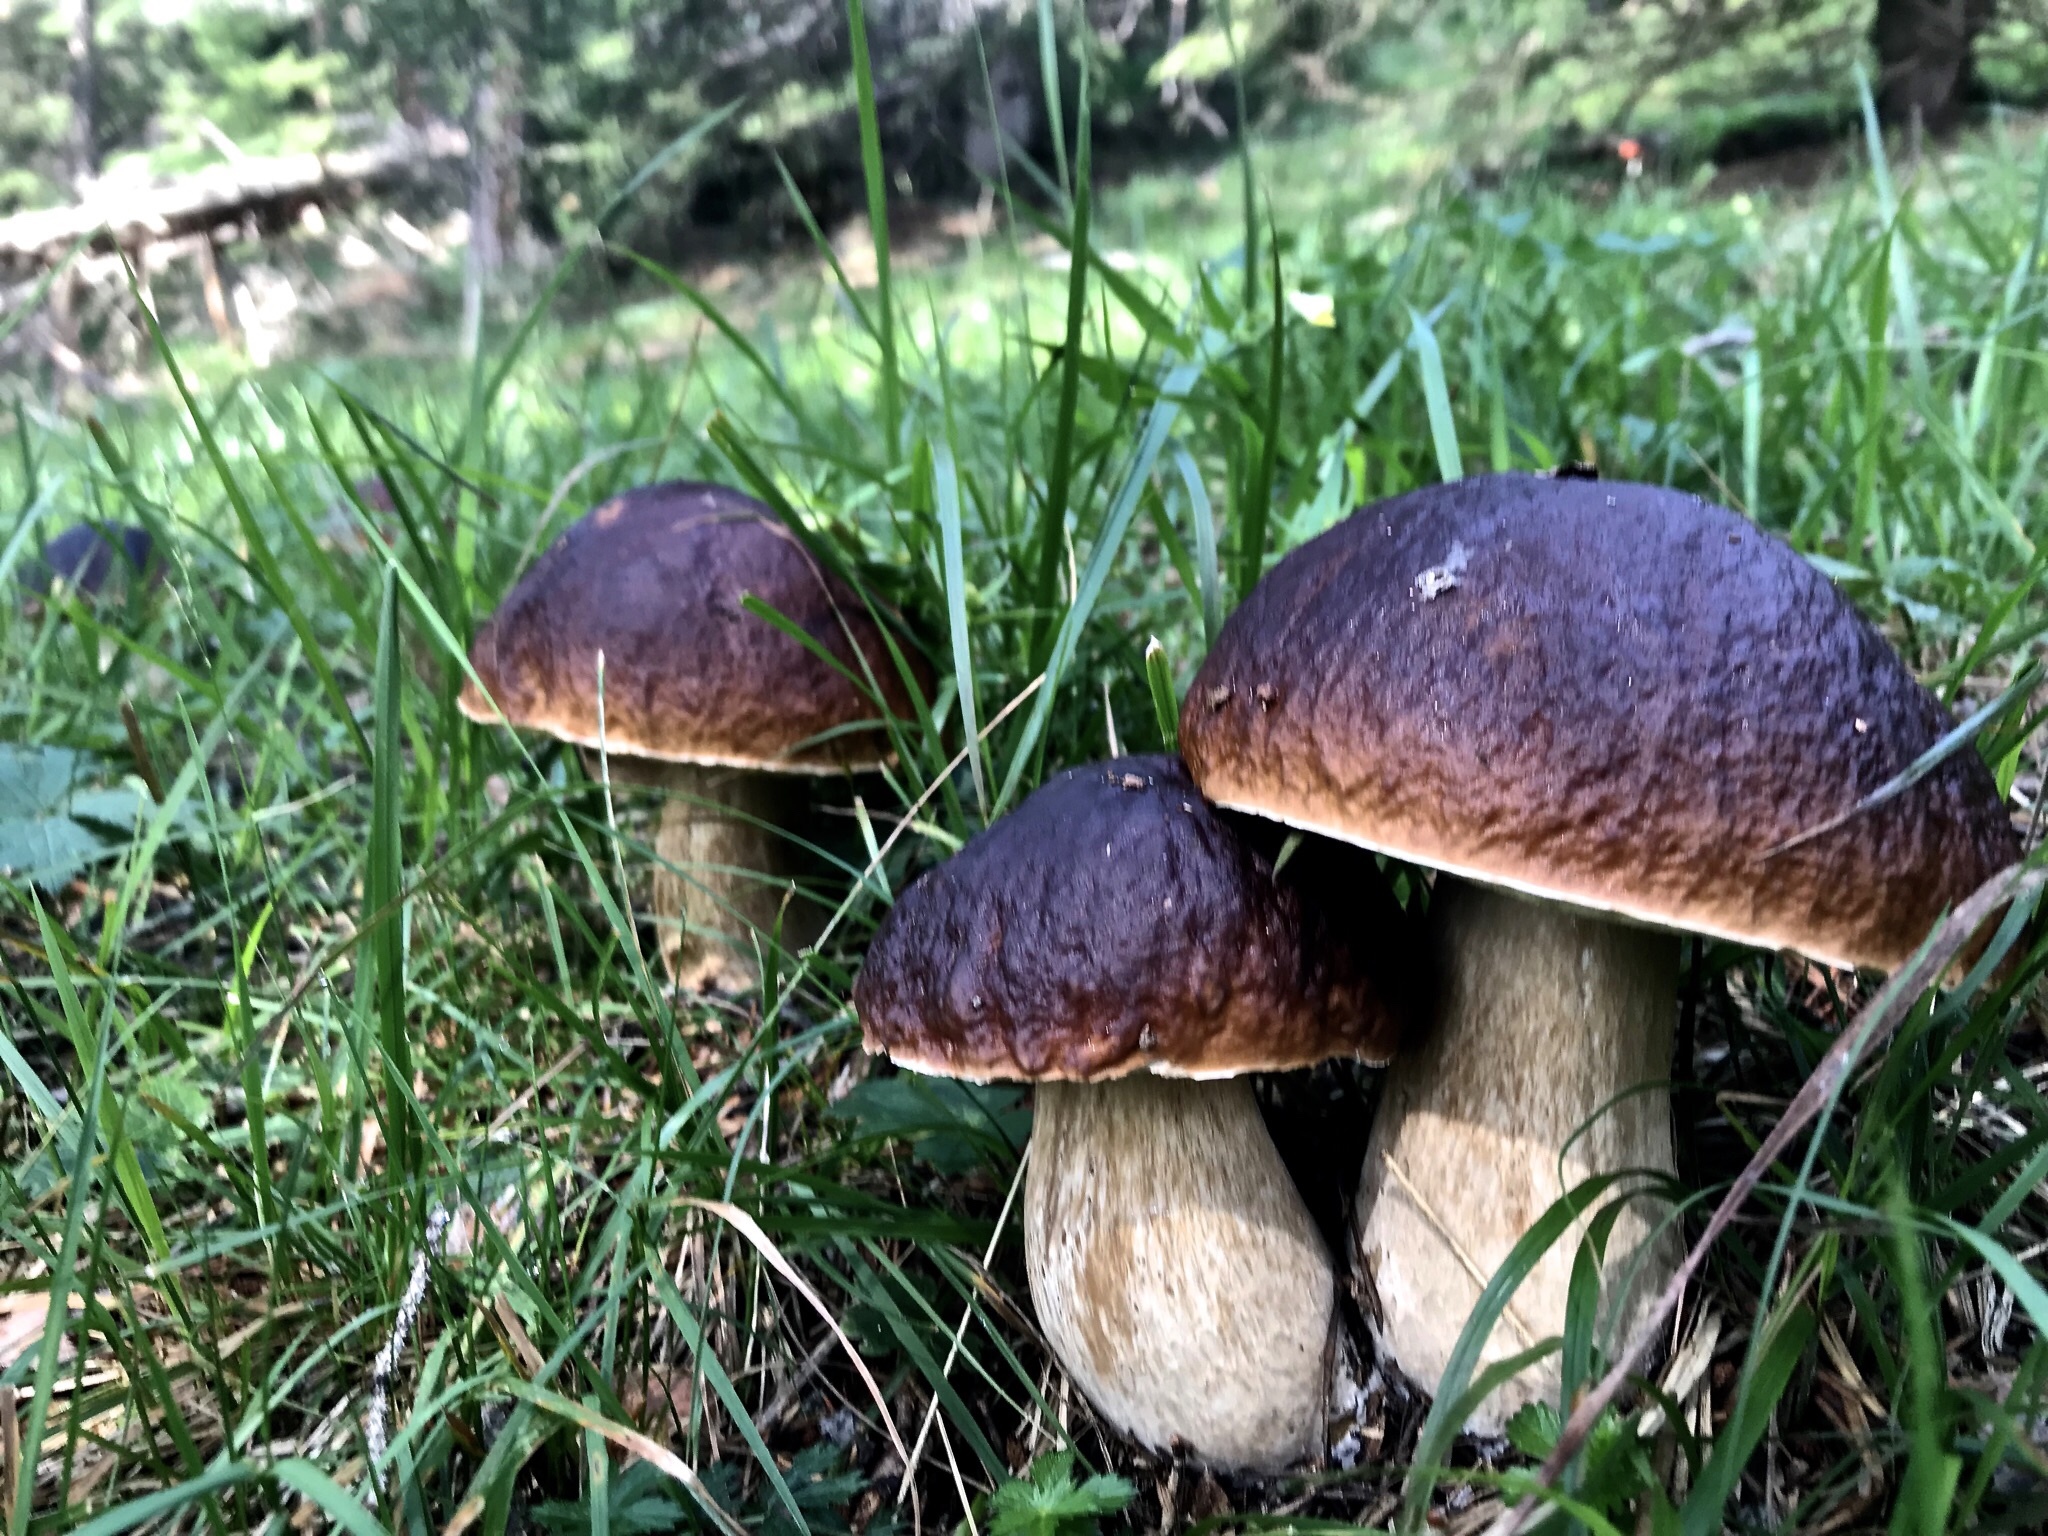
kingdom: Fungi
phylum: Basidiomycota
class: Agaricomycetes
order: Boletales
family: Boletaceae
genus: Boletus
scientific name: Boletus edulis
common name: Cep
